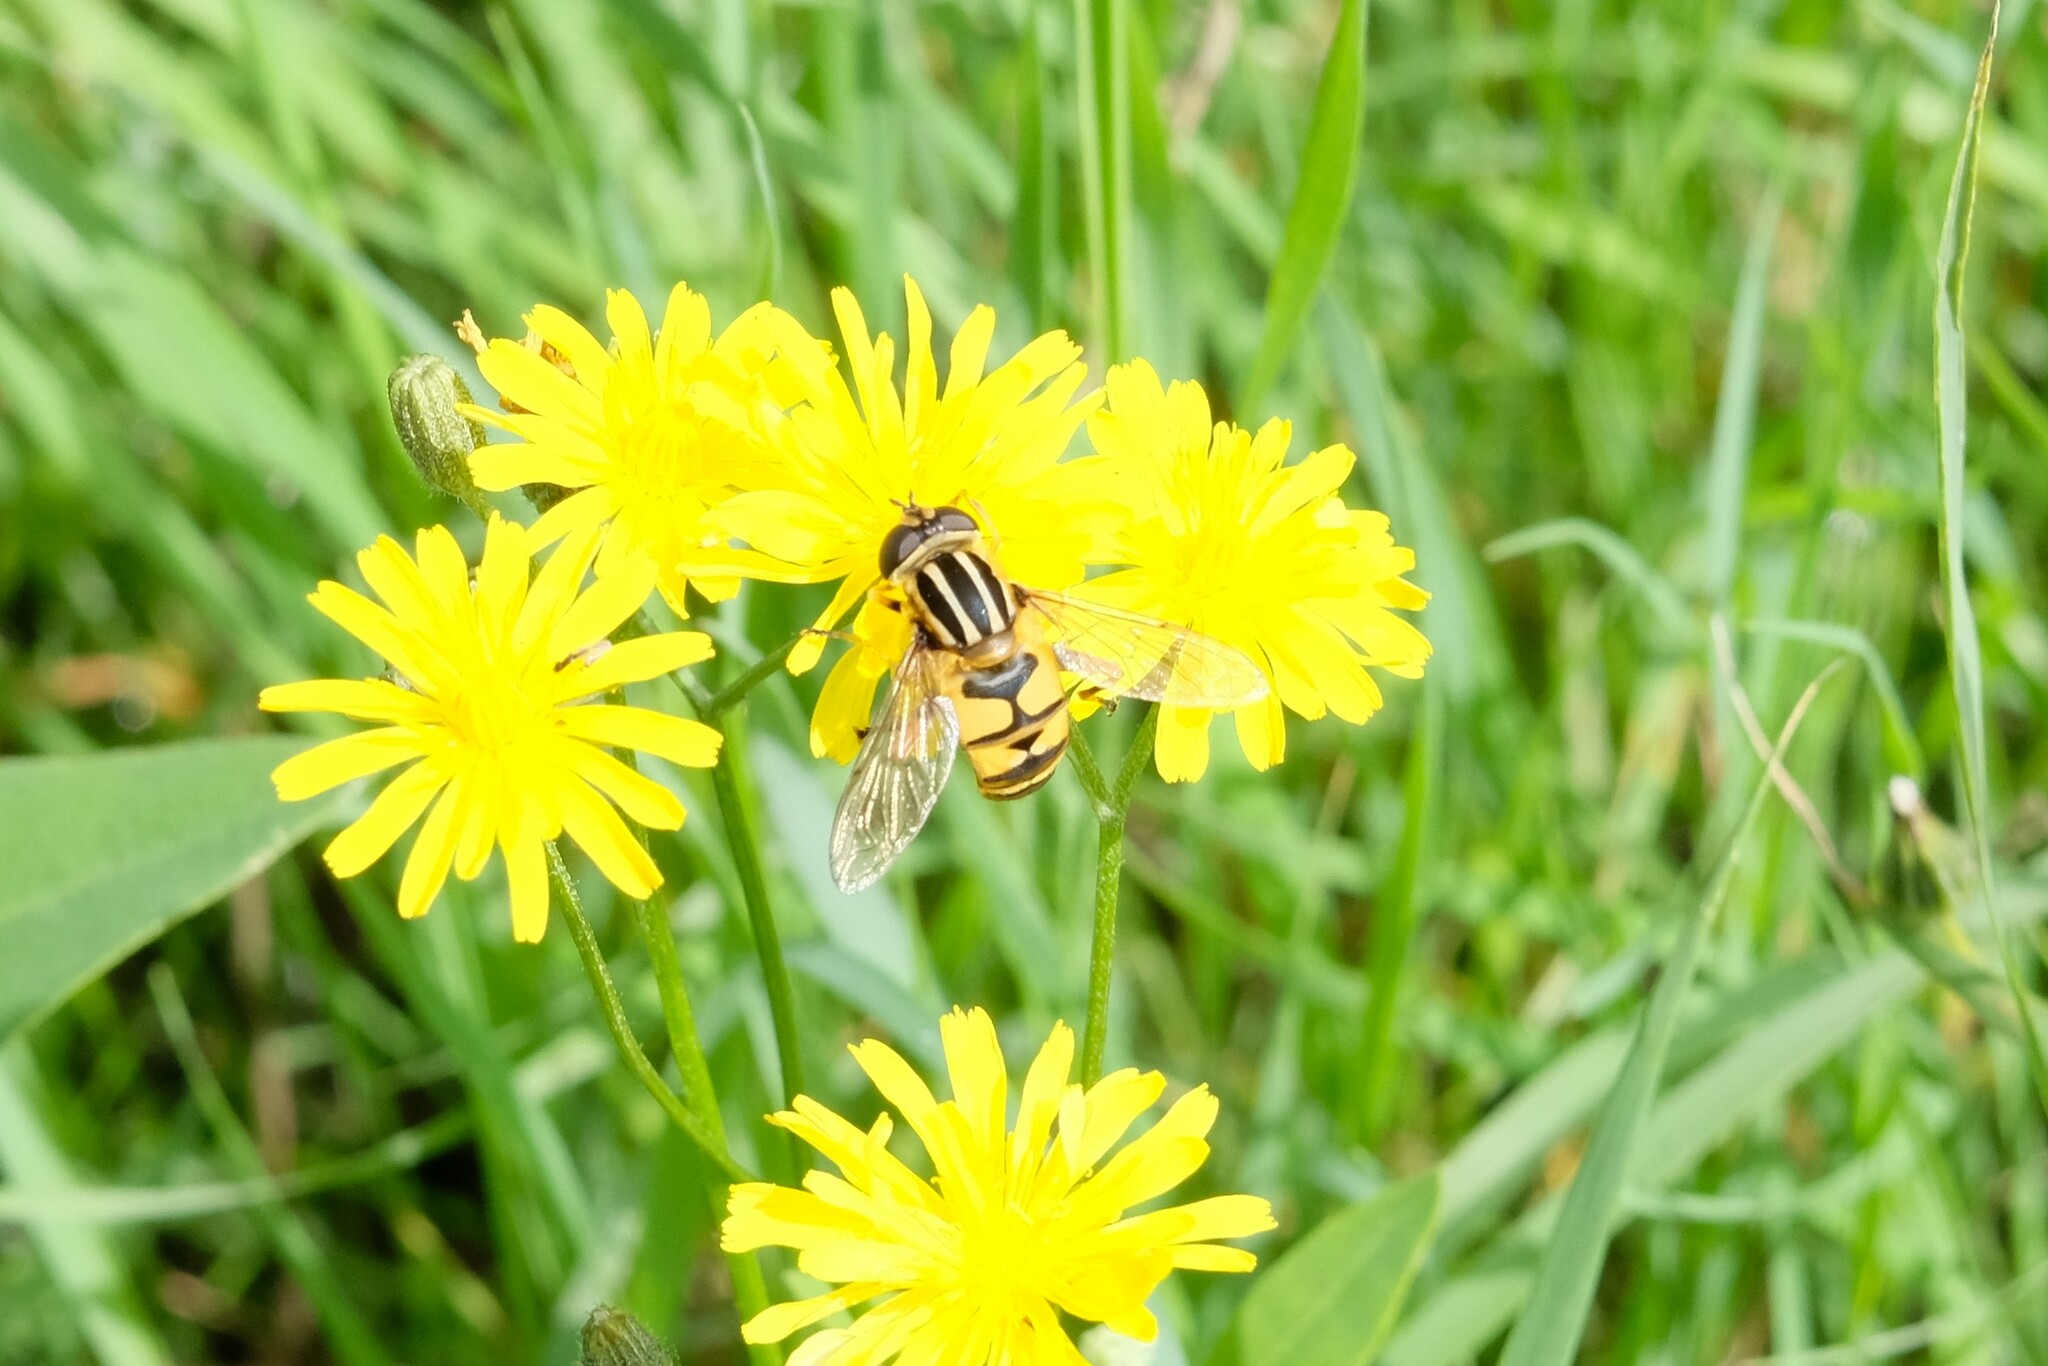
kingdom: Animalia
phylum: Arthropoda
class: Insecta
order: Diptera
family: Syrphidae
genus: Helophilus
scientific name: Helophilus pendulus
